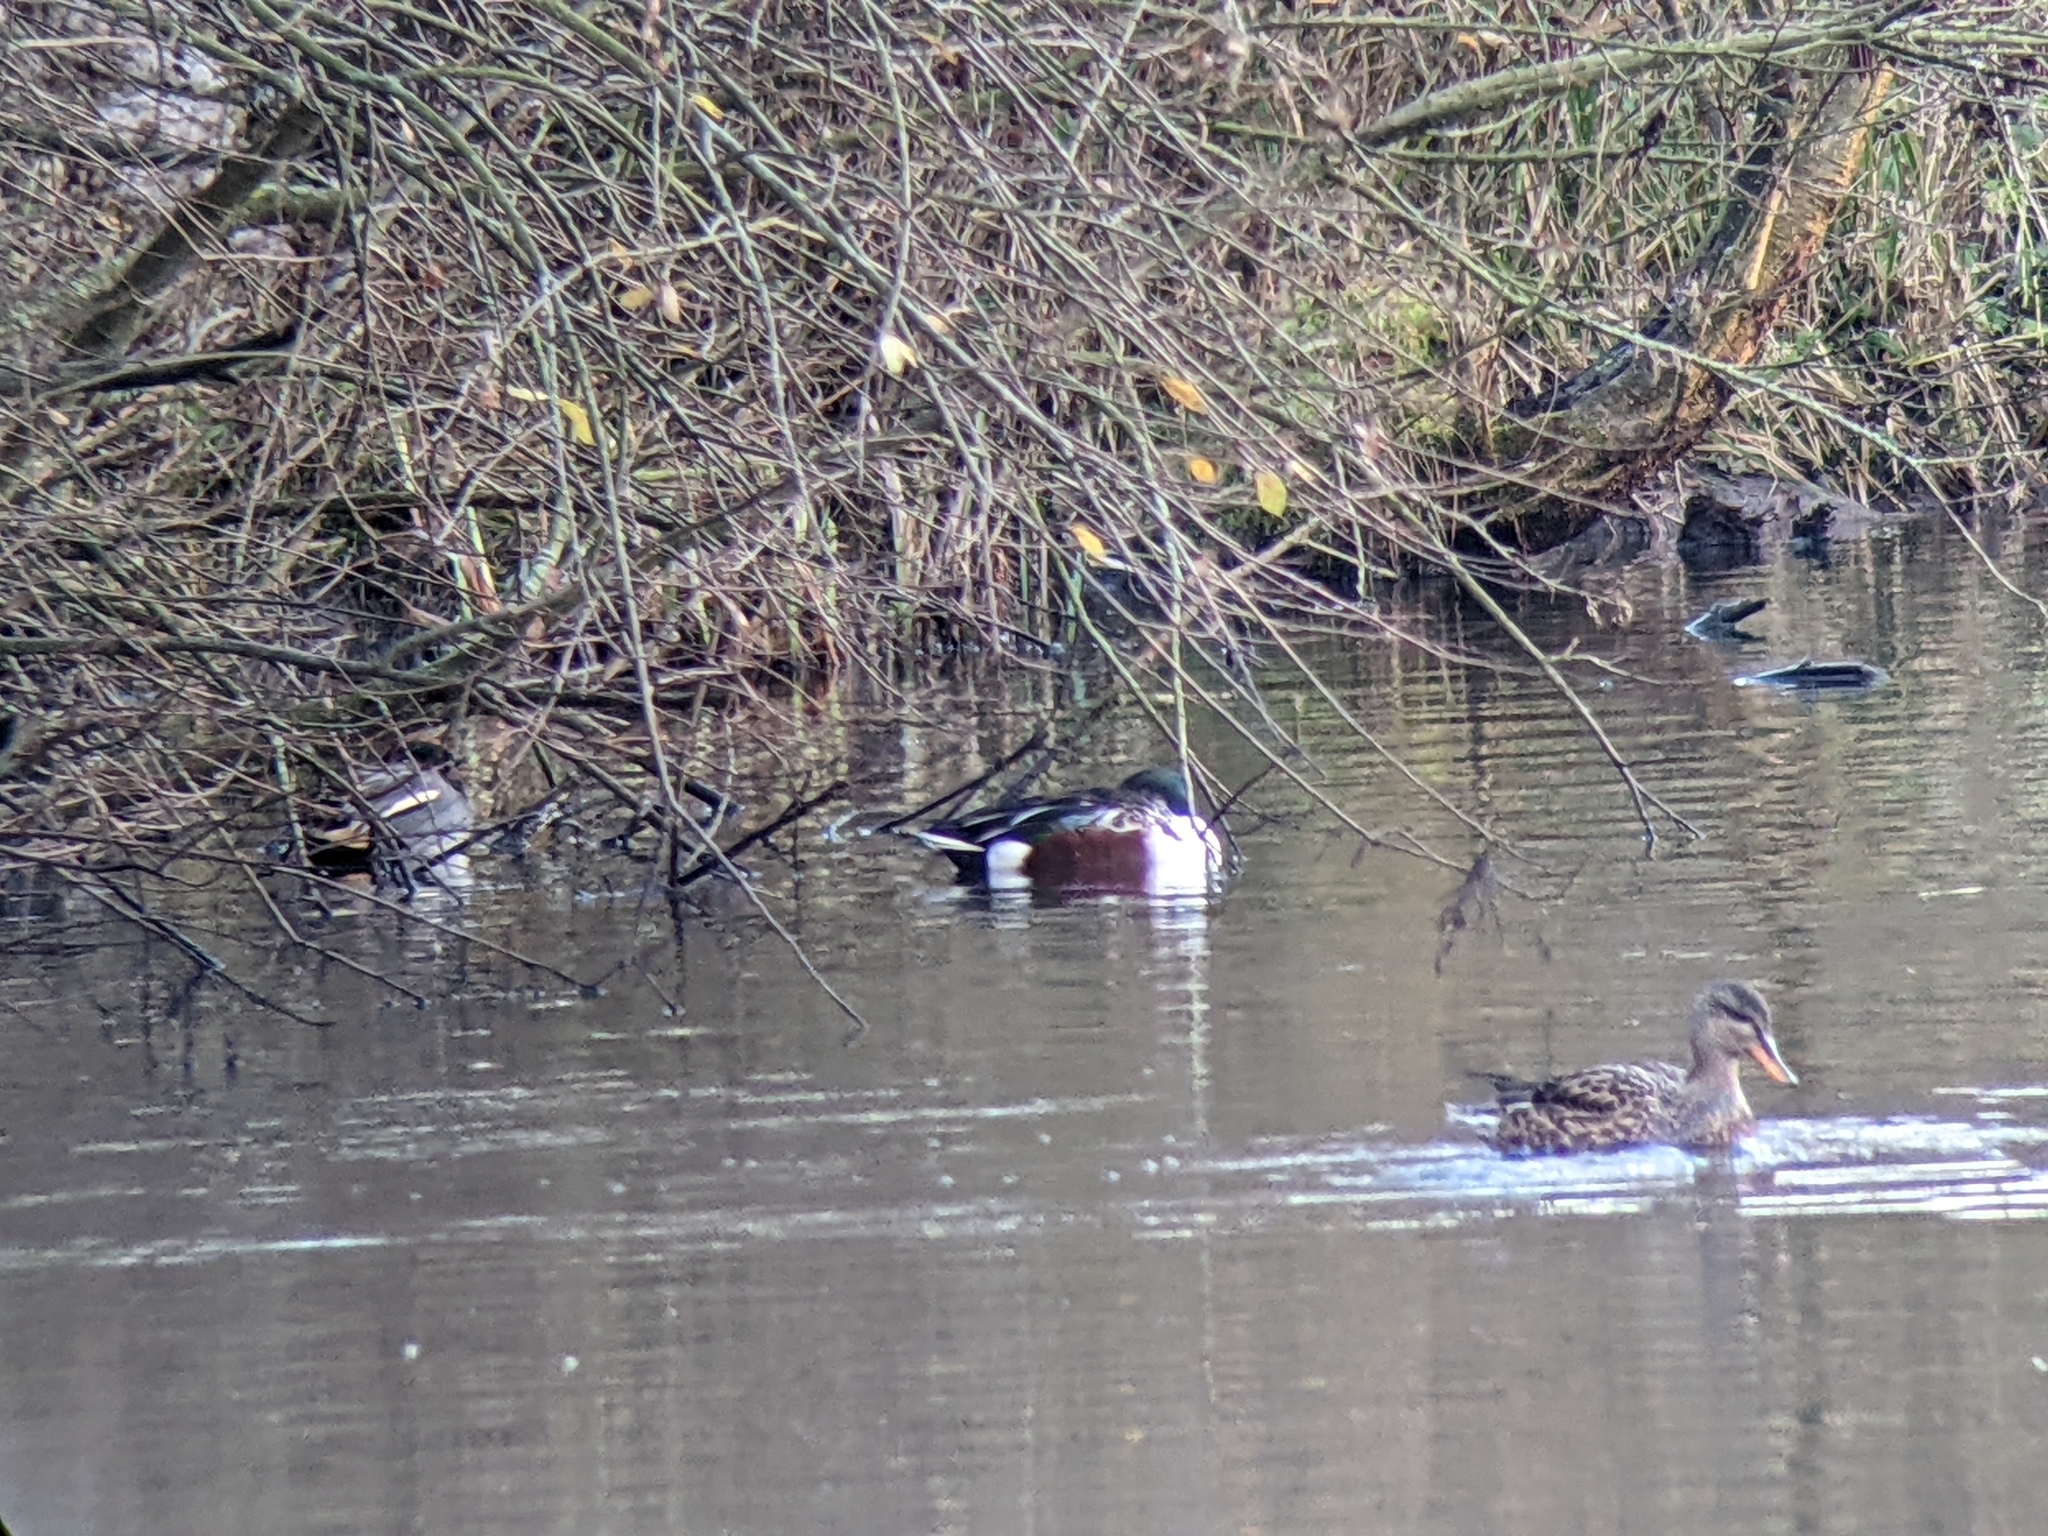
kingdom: Animalia
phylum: Chordata
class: Aves
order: Anseriformes
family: Anatidae
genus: Spatula
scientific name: Spatula clypeata
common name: Northern shoveler
